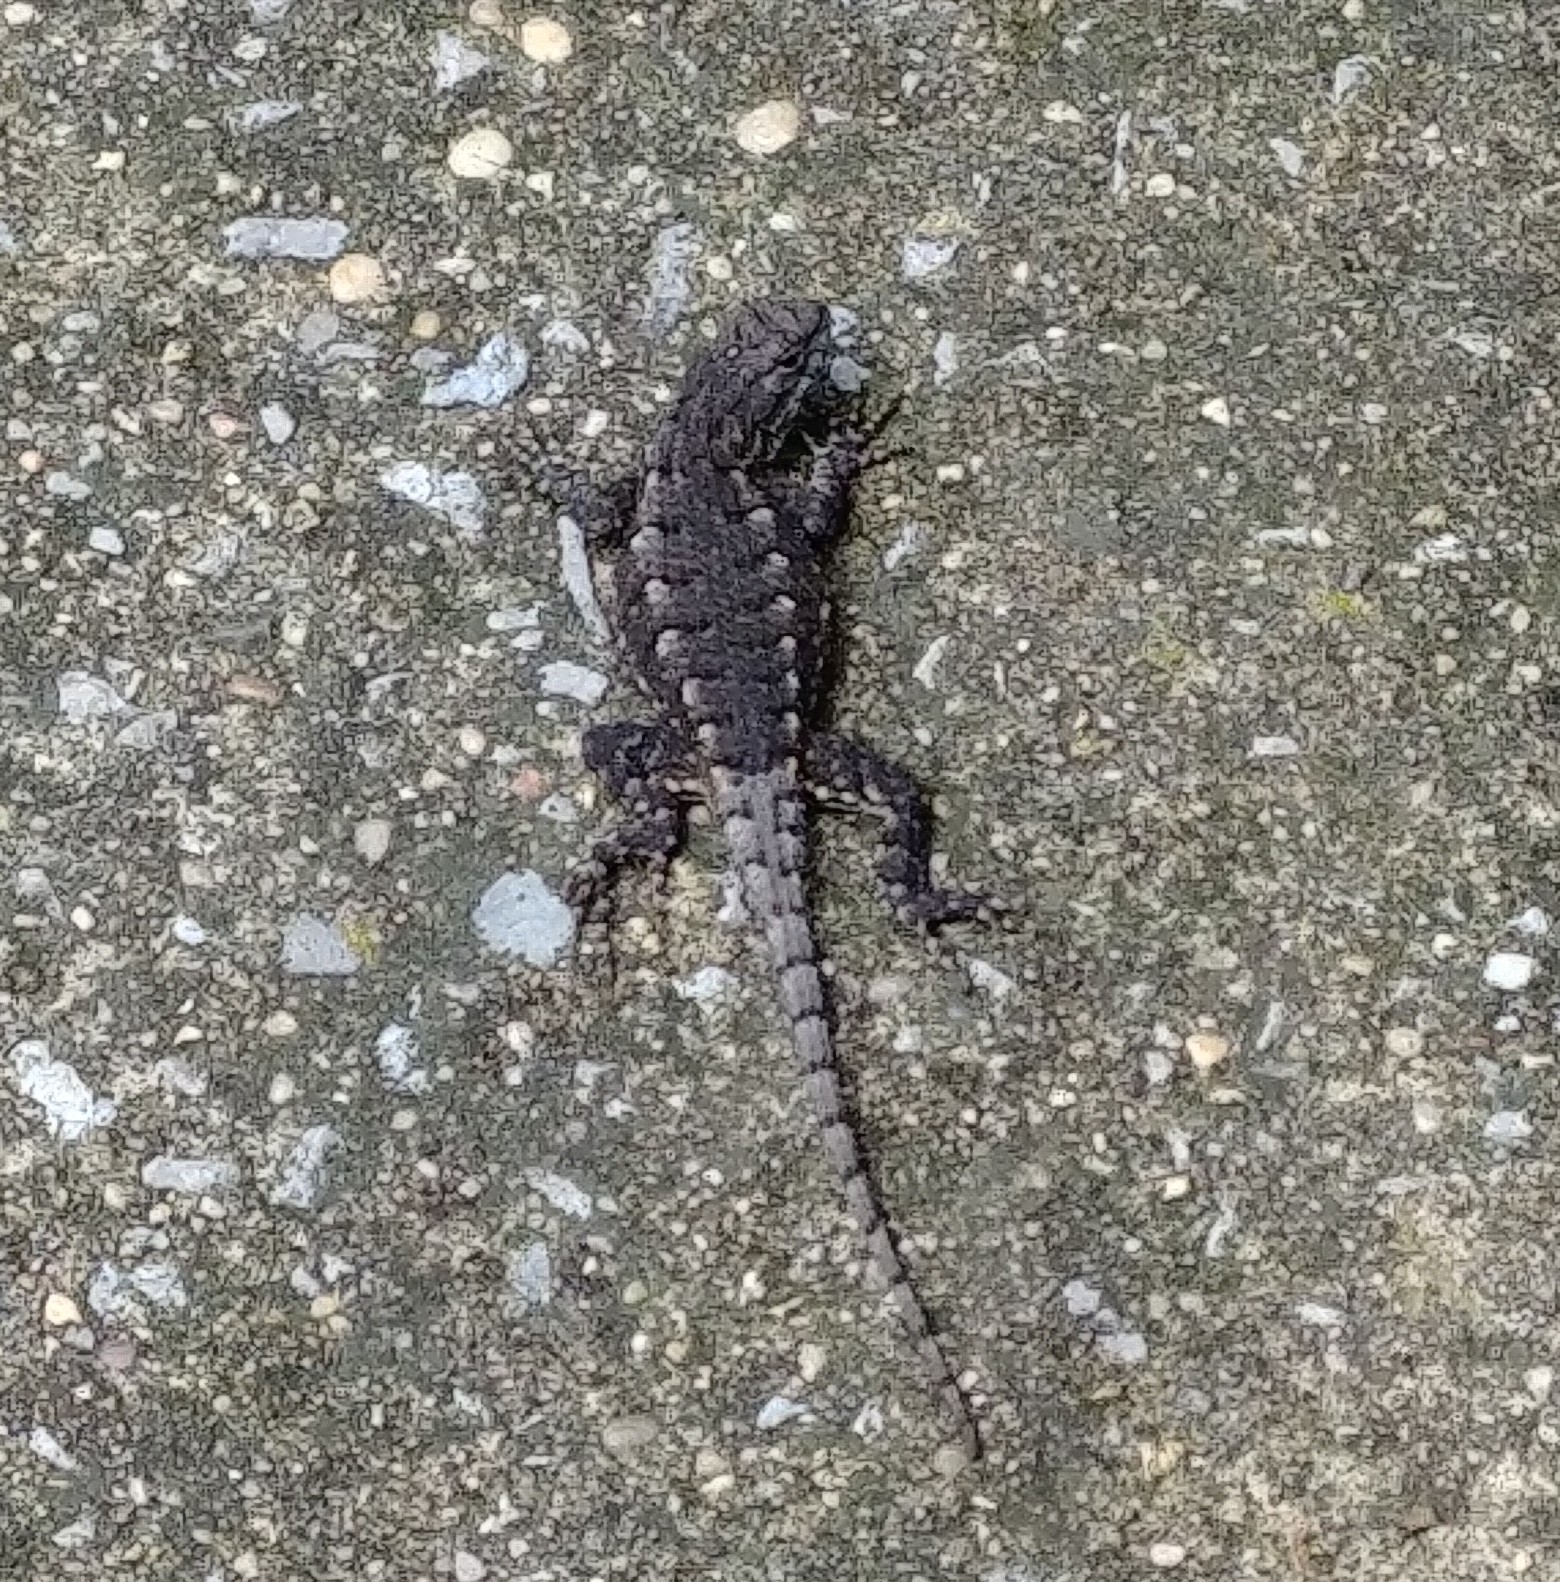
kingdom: Animalia
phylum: Chordata
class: Squamata
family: Phrynosomatidae
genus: Sceloporus
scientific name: Sceloporus undulatus
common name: Eastern fence lizard
